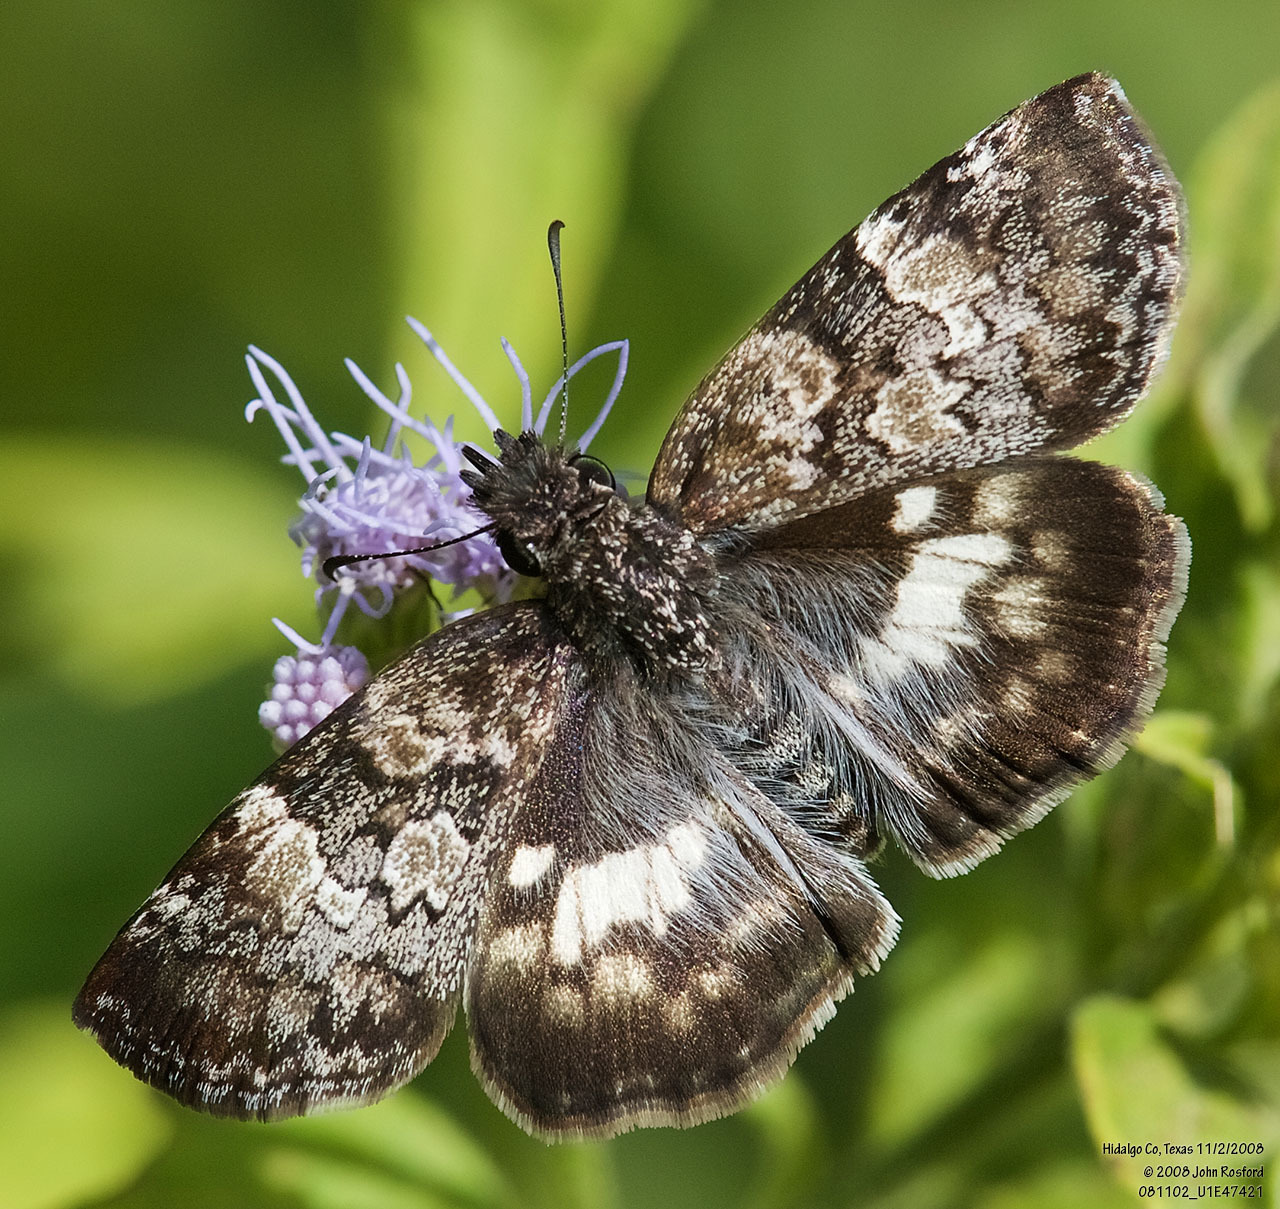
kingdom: Animalia
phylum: Arthropoda
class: Insecta
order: Lepidoptera
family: Hesperiidae
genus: Chiothion
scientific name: Chiothion georgina
